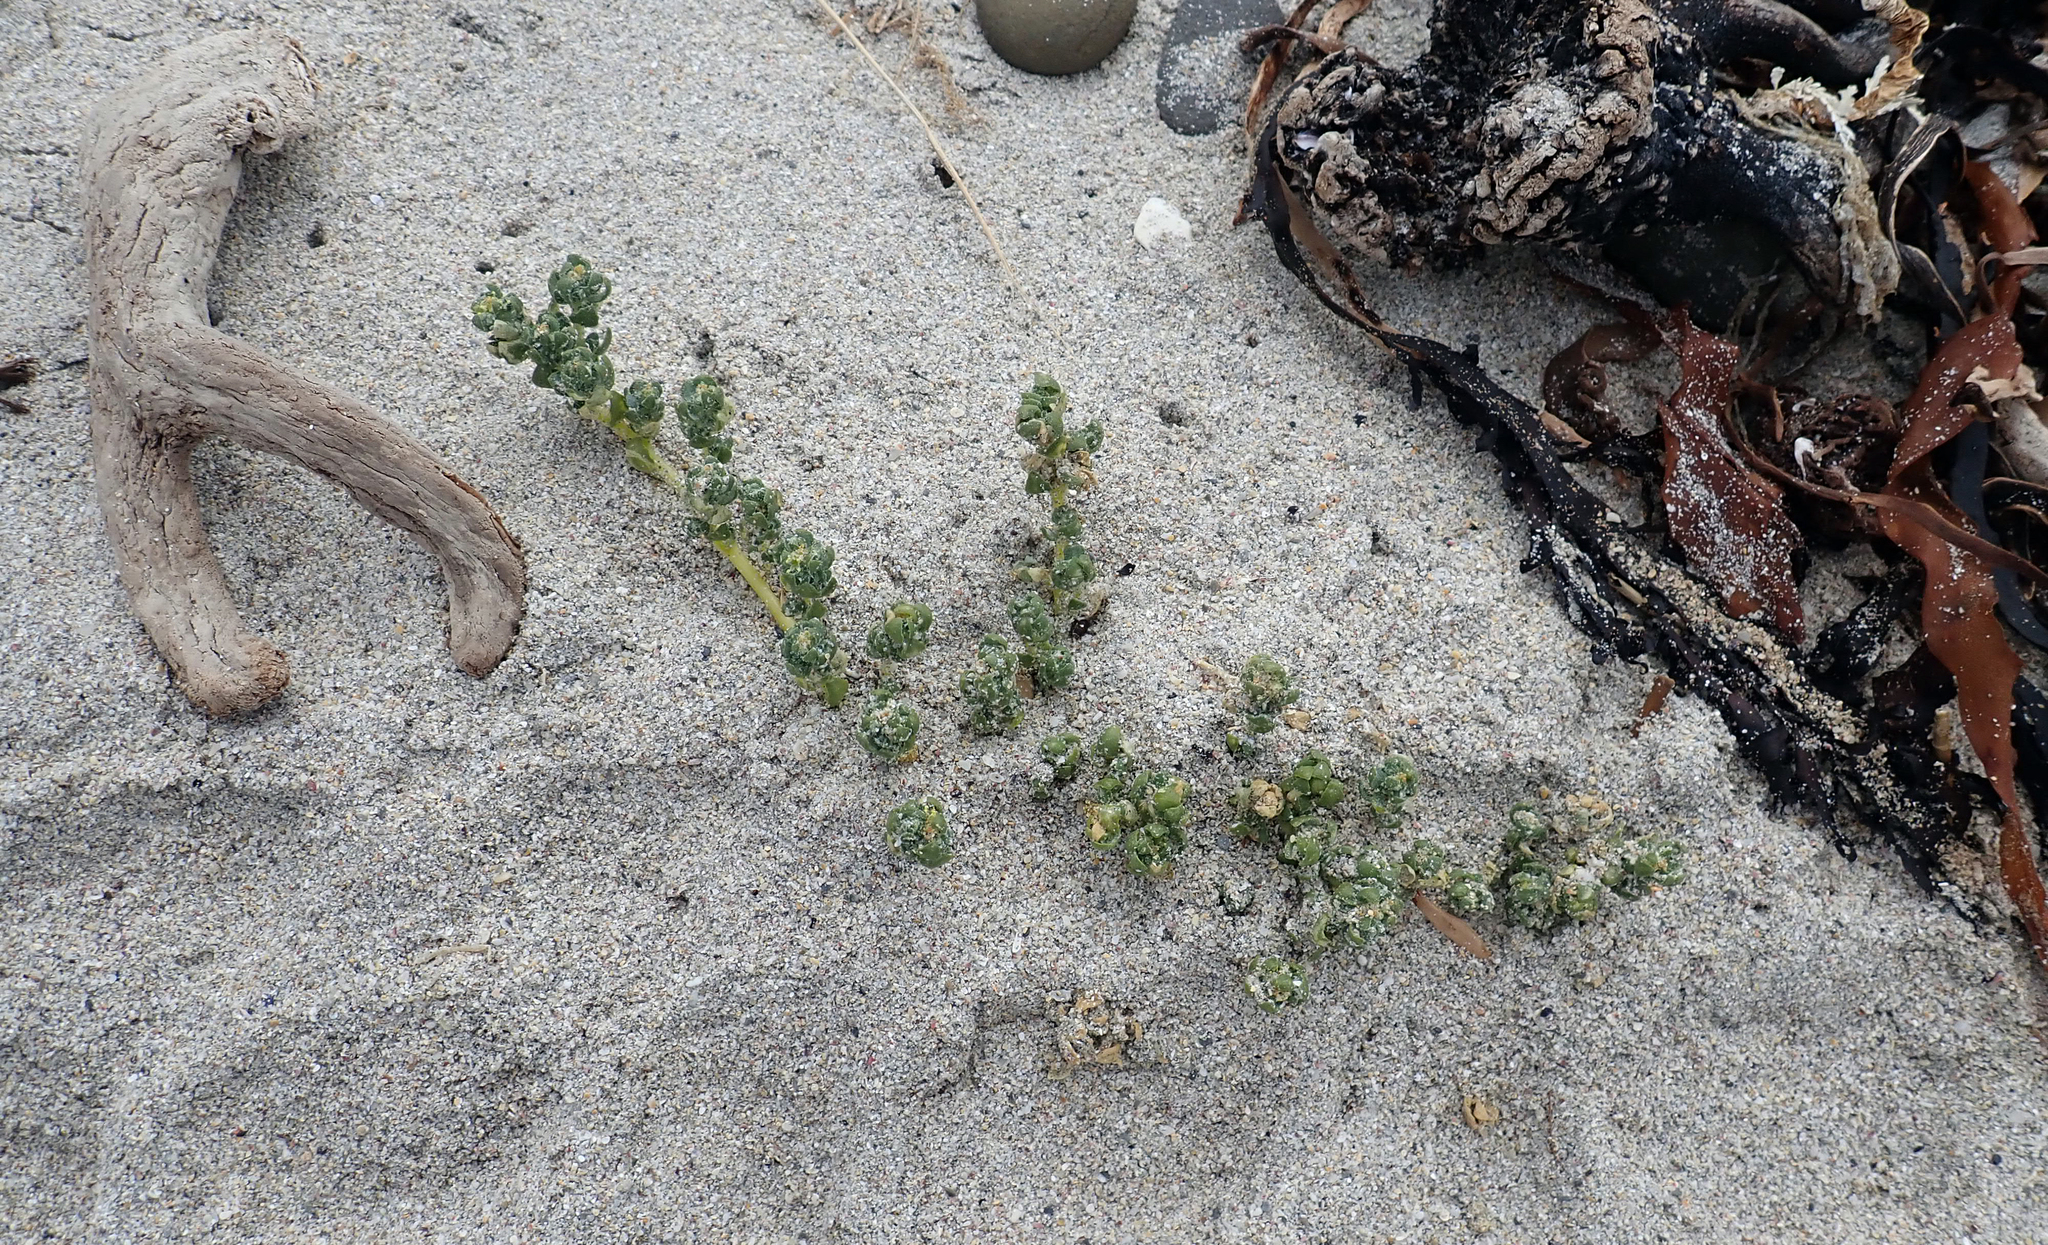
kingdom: Plantae
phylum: Tracheophyta
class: Magnoliopsida
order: Caryophyllales
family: Amaranthaceae
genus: Atriplex
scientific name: Atriplex billardierei
